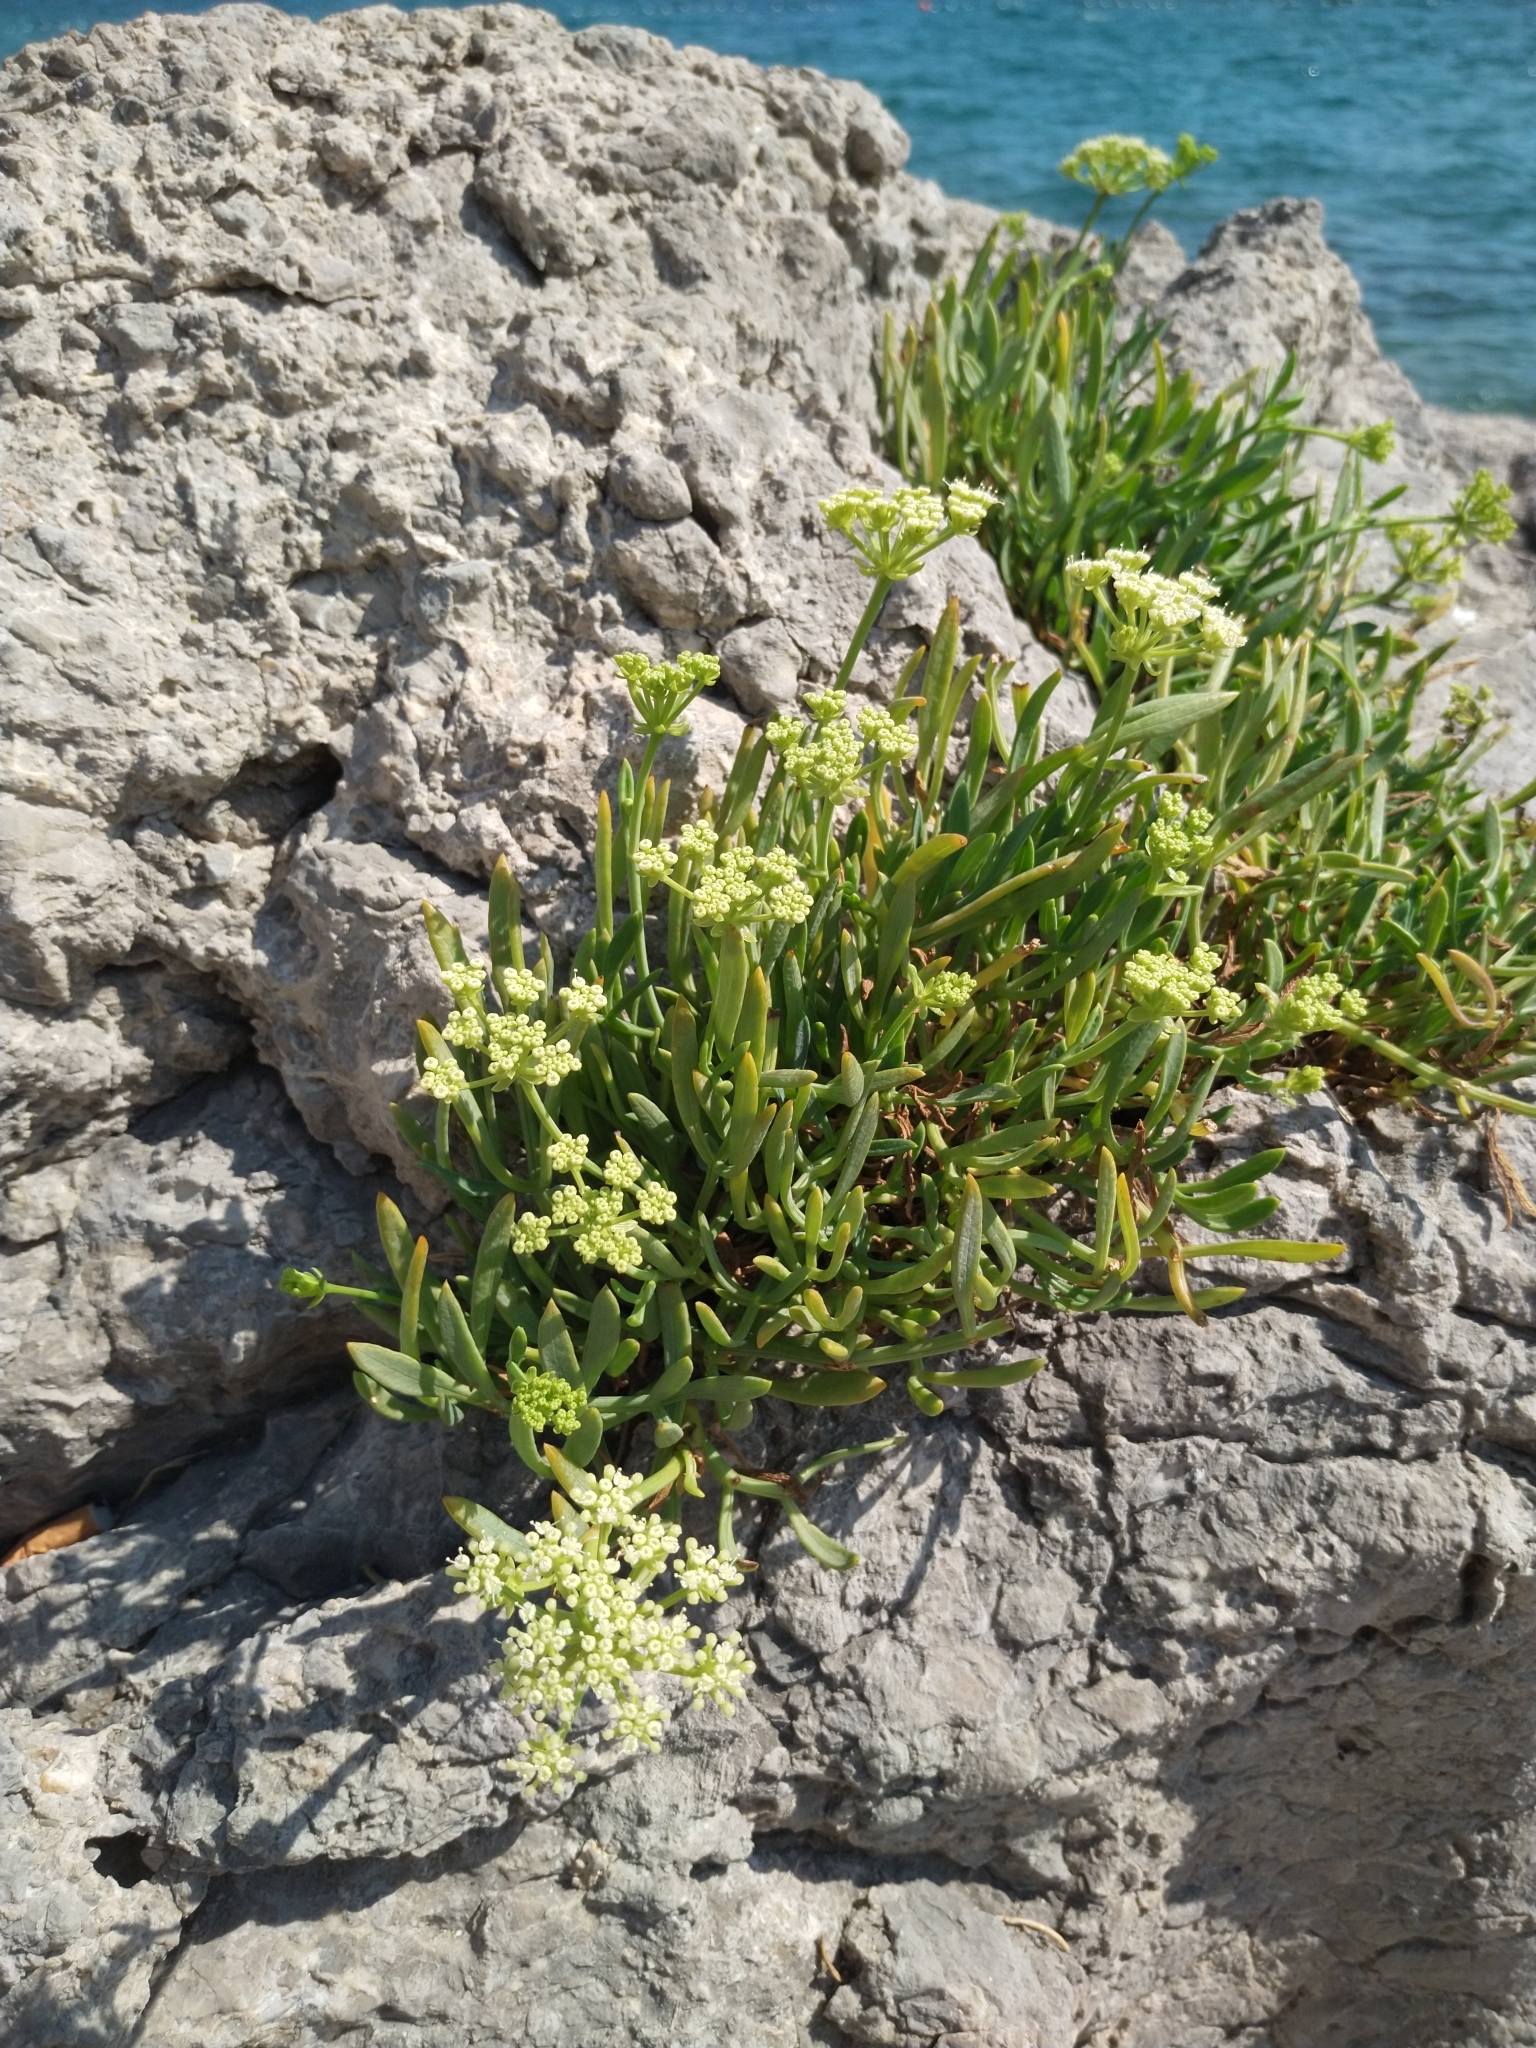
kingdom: Plantae
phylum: Tracheophyta
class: Magnoliopsida
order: Apiales
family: Apiaceae
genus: Crithmum
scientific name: Crithmum maritimum
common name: Rock samphire
